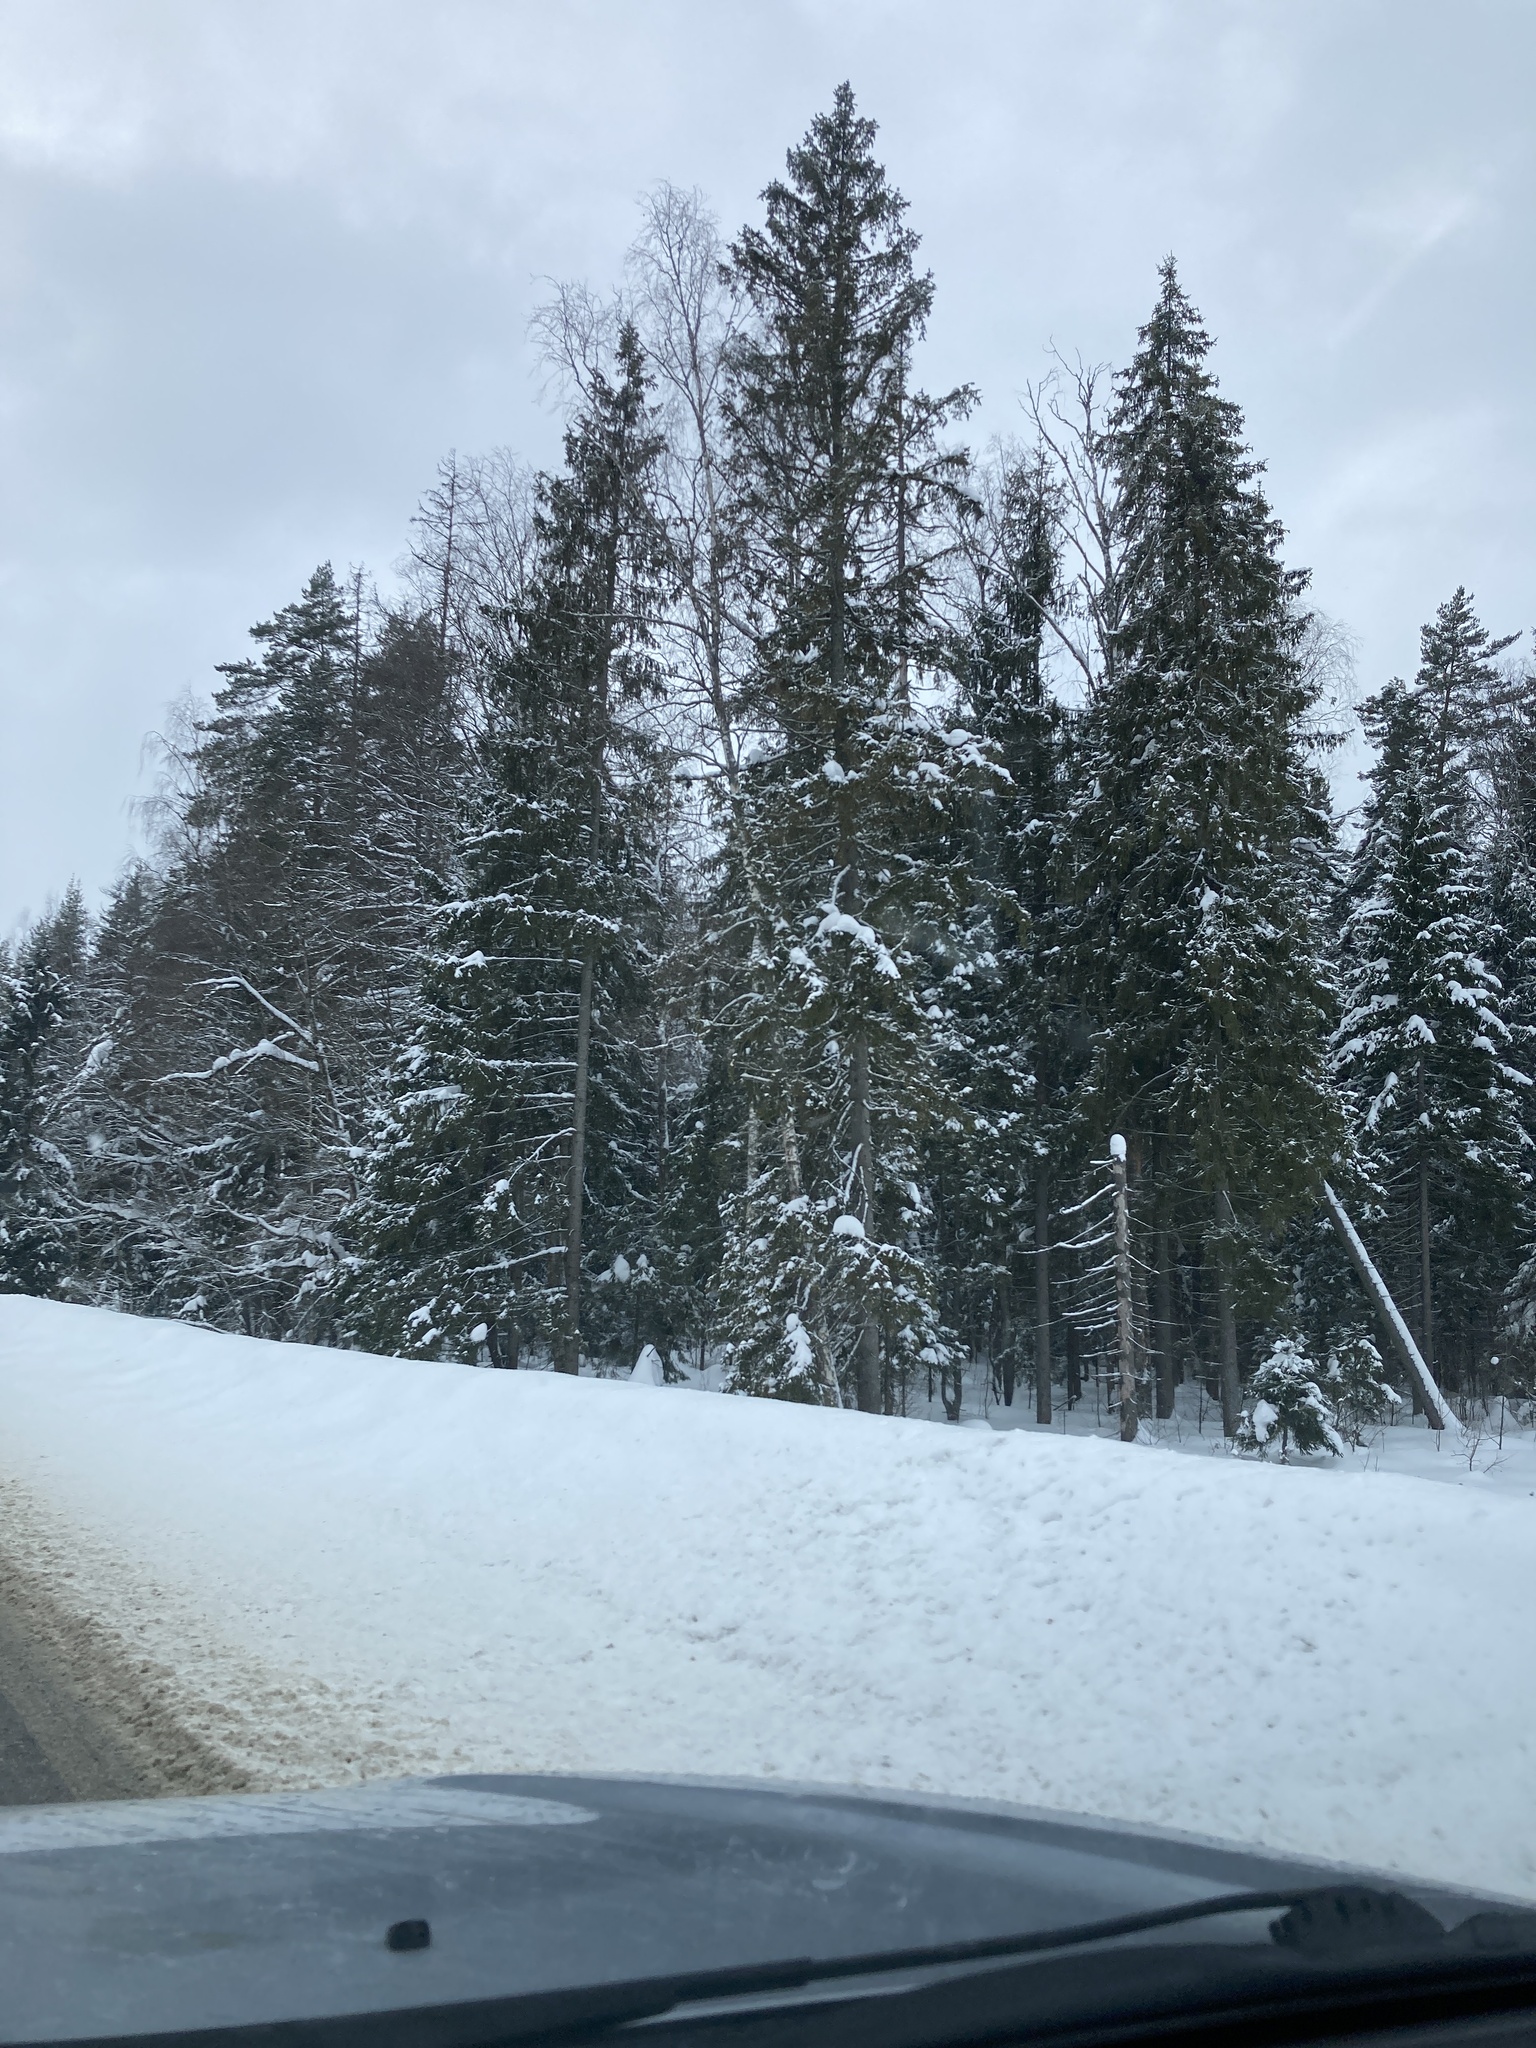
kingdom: Plantae
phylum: Tracheophyta
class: Pinopsida
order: Pinales
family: Pinaceae
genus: Picea
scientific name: Picea abies
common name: Norway spruce
